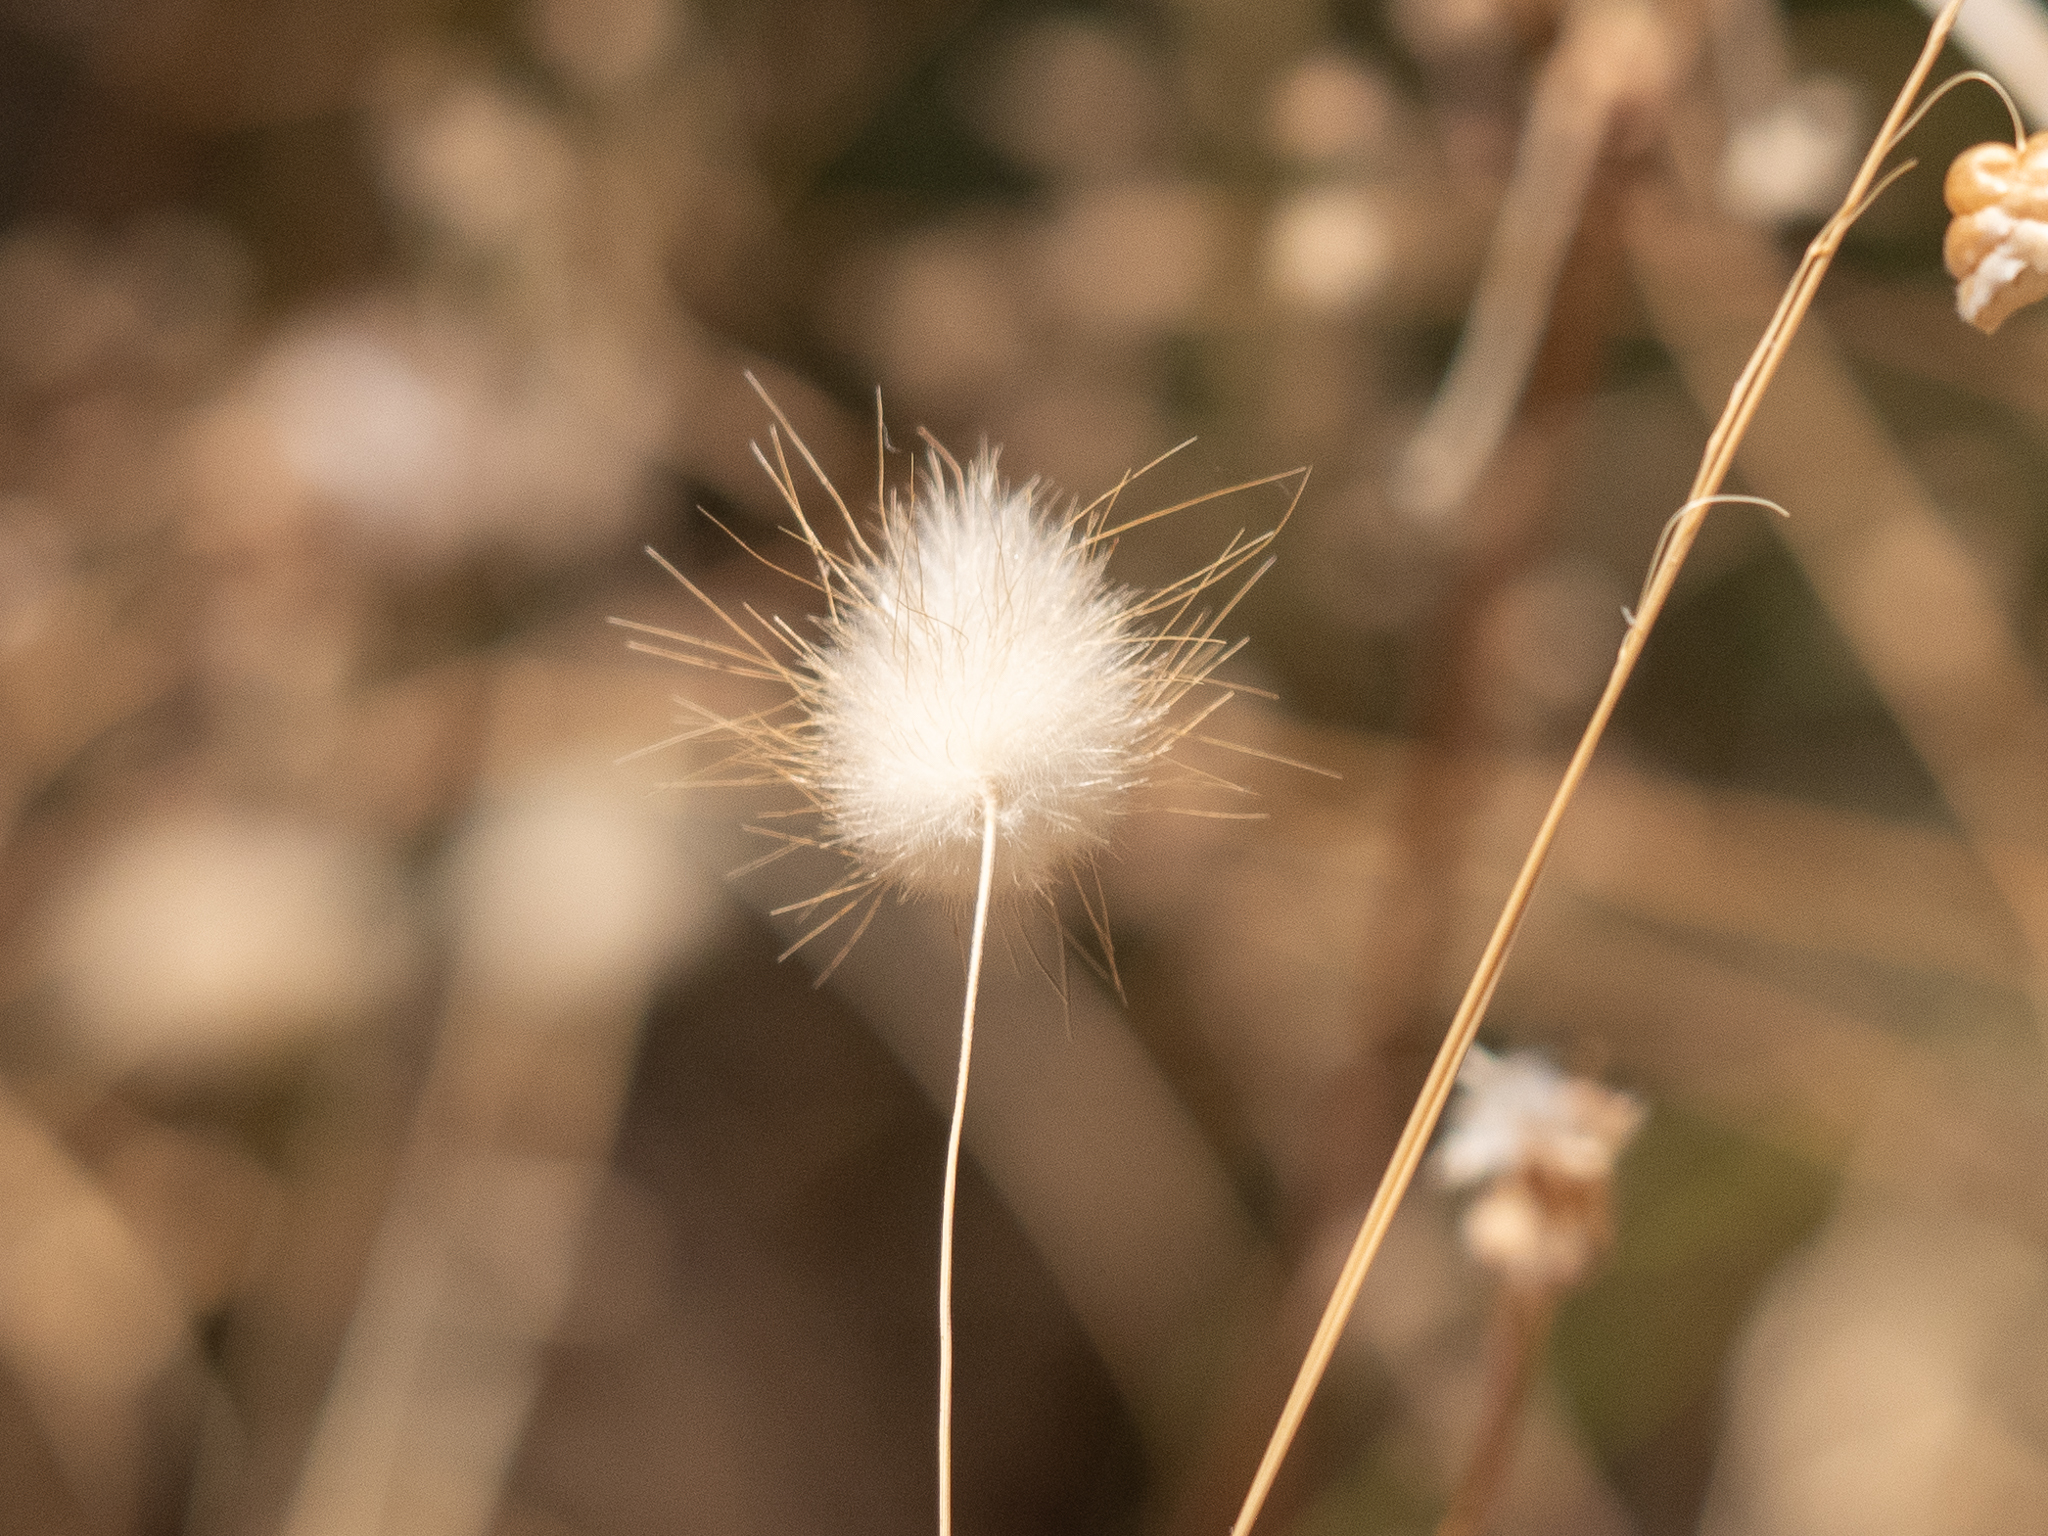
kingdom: Plantae
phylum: Tracheophyta
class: Liliopsida
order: Poales
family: Poaceae
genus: Lagurus
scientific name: Lagurus ovatus
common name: Hare's-tail
